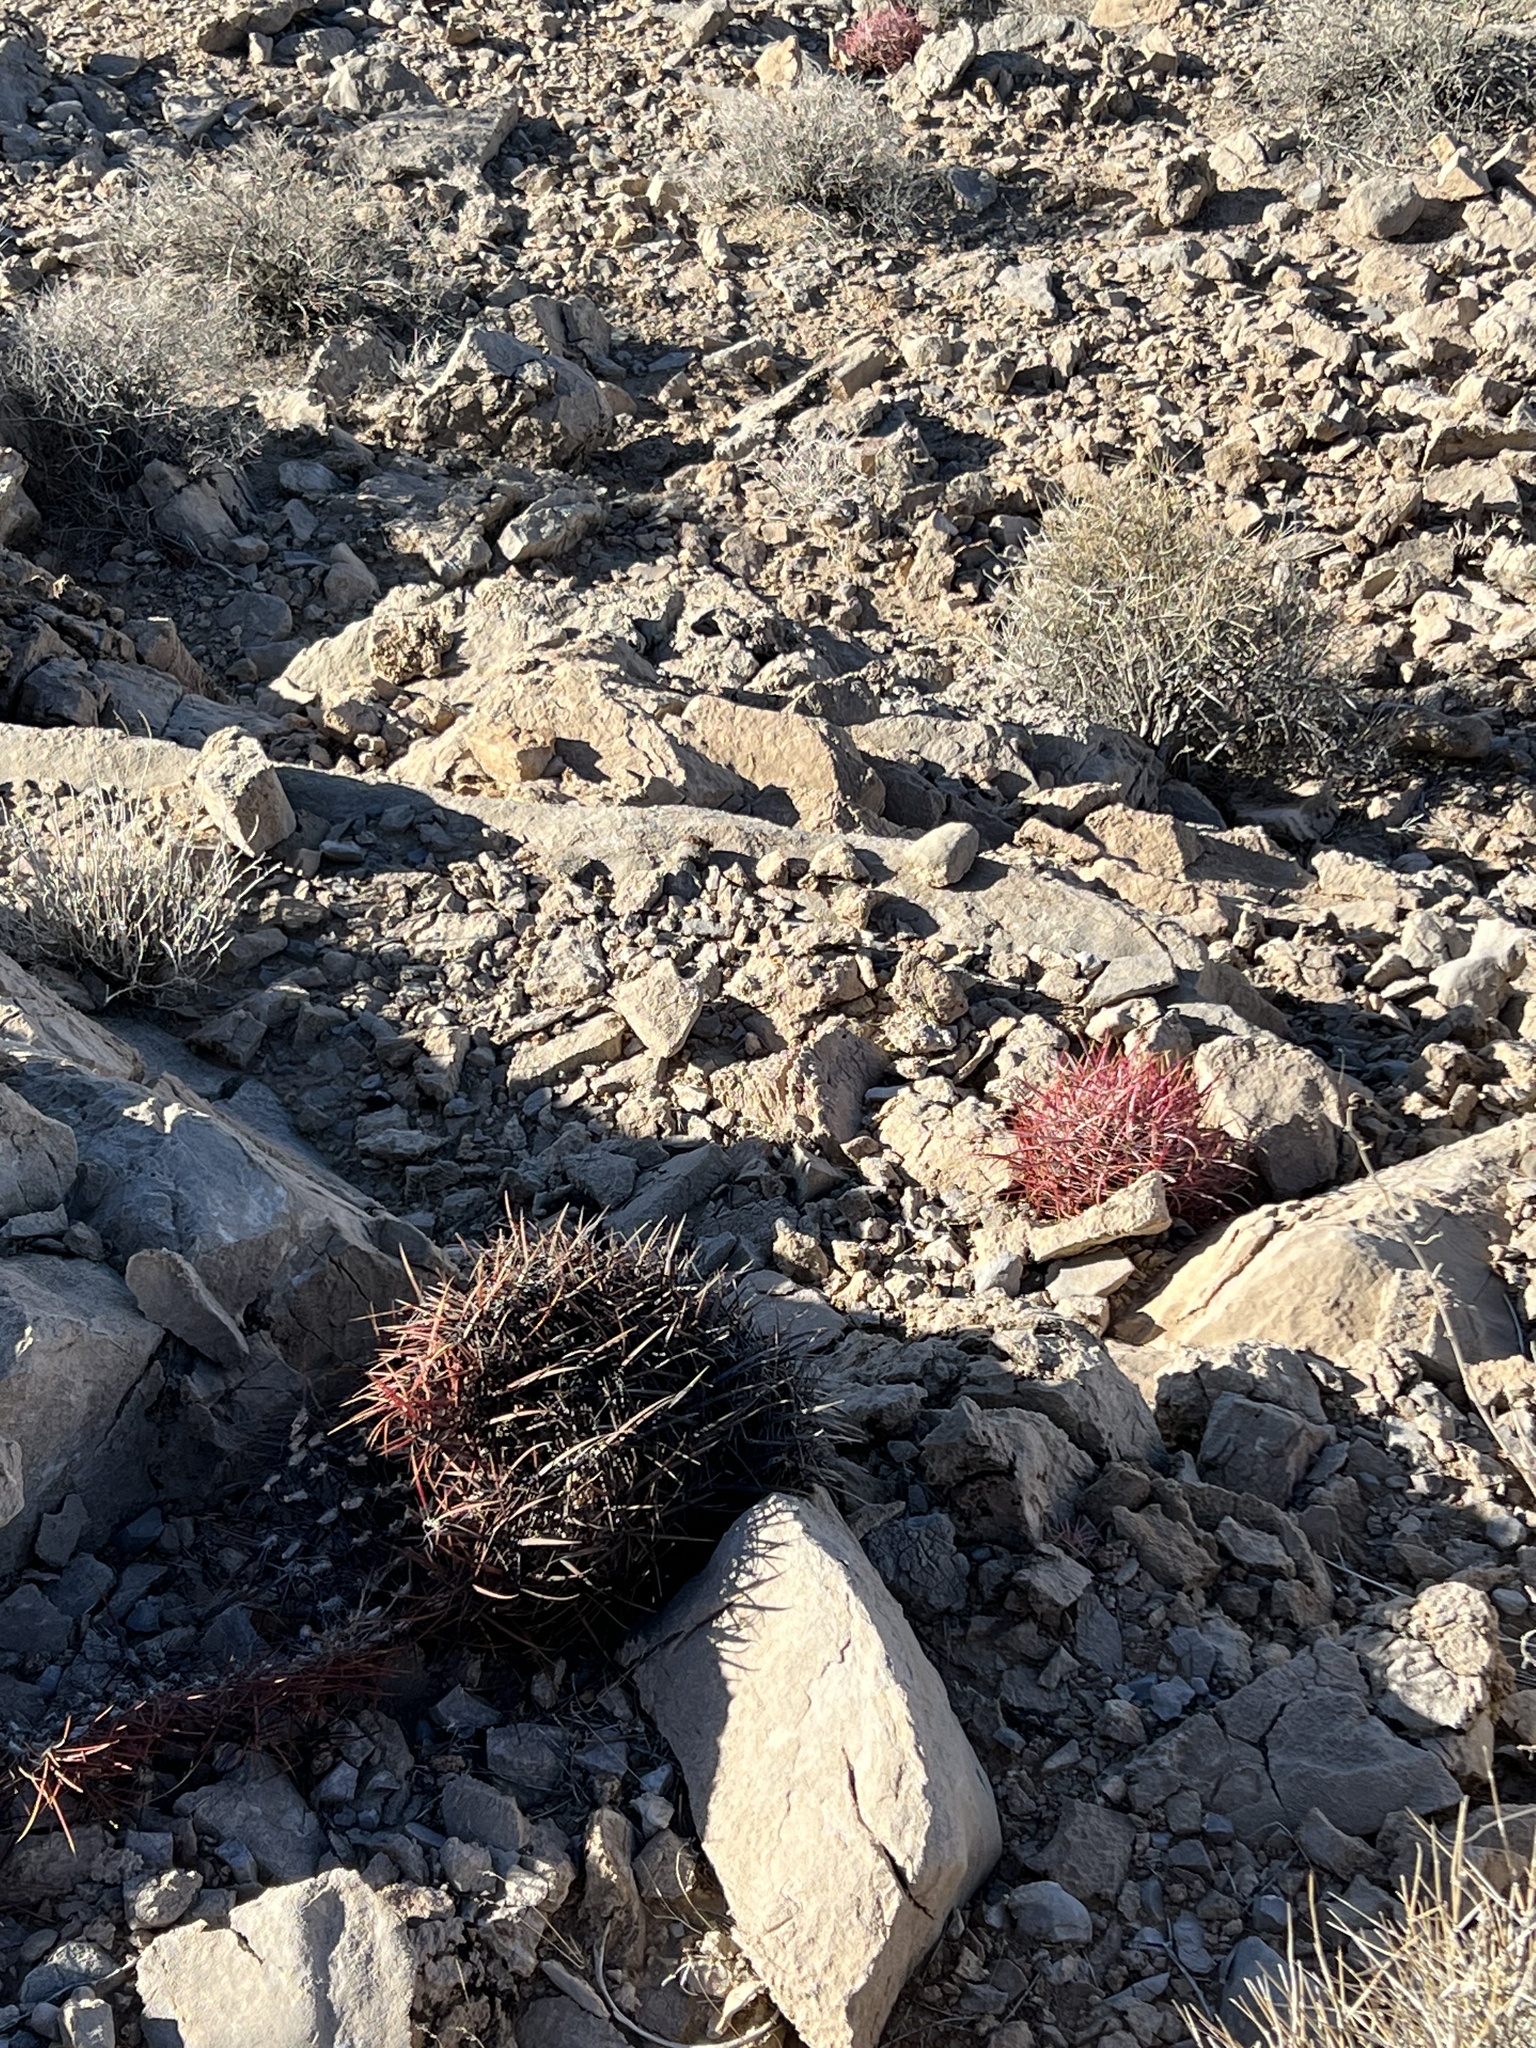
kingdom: Plantae
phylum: Tracheophyta
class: Magnoliopsida
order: Caryophyllales
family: Cactaceae
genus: Ferocactus
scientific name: Ferocactus cylindraceus
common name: California barrel cactus
